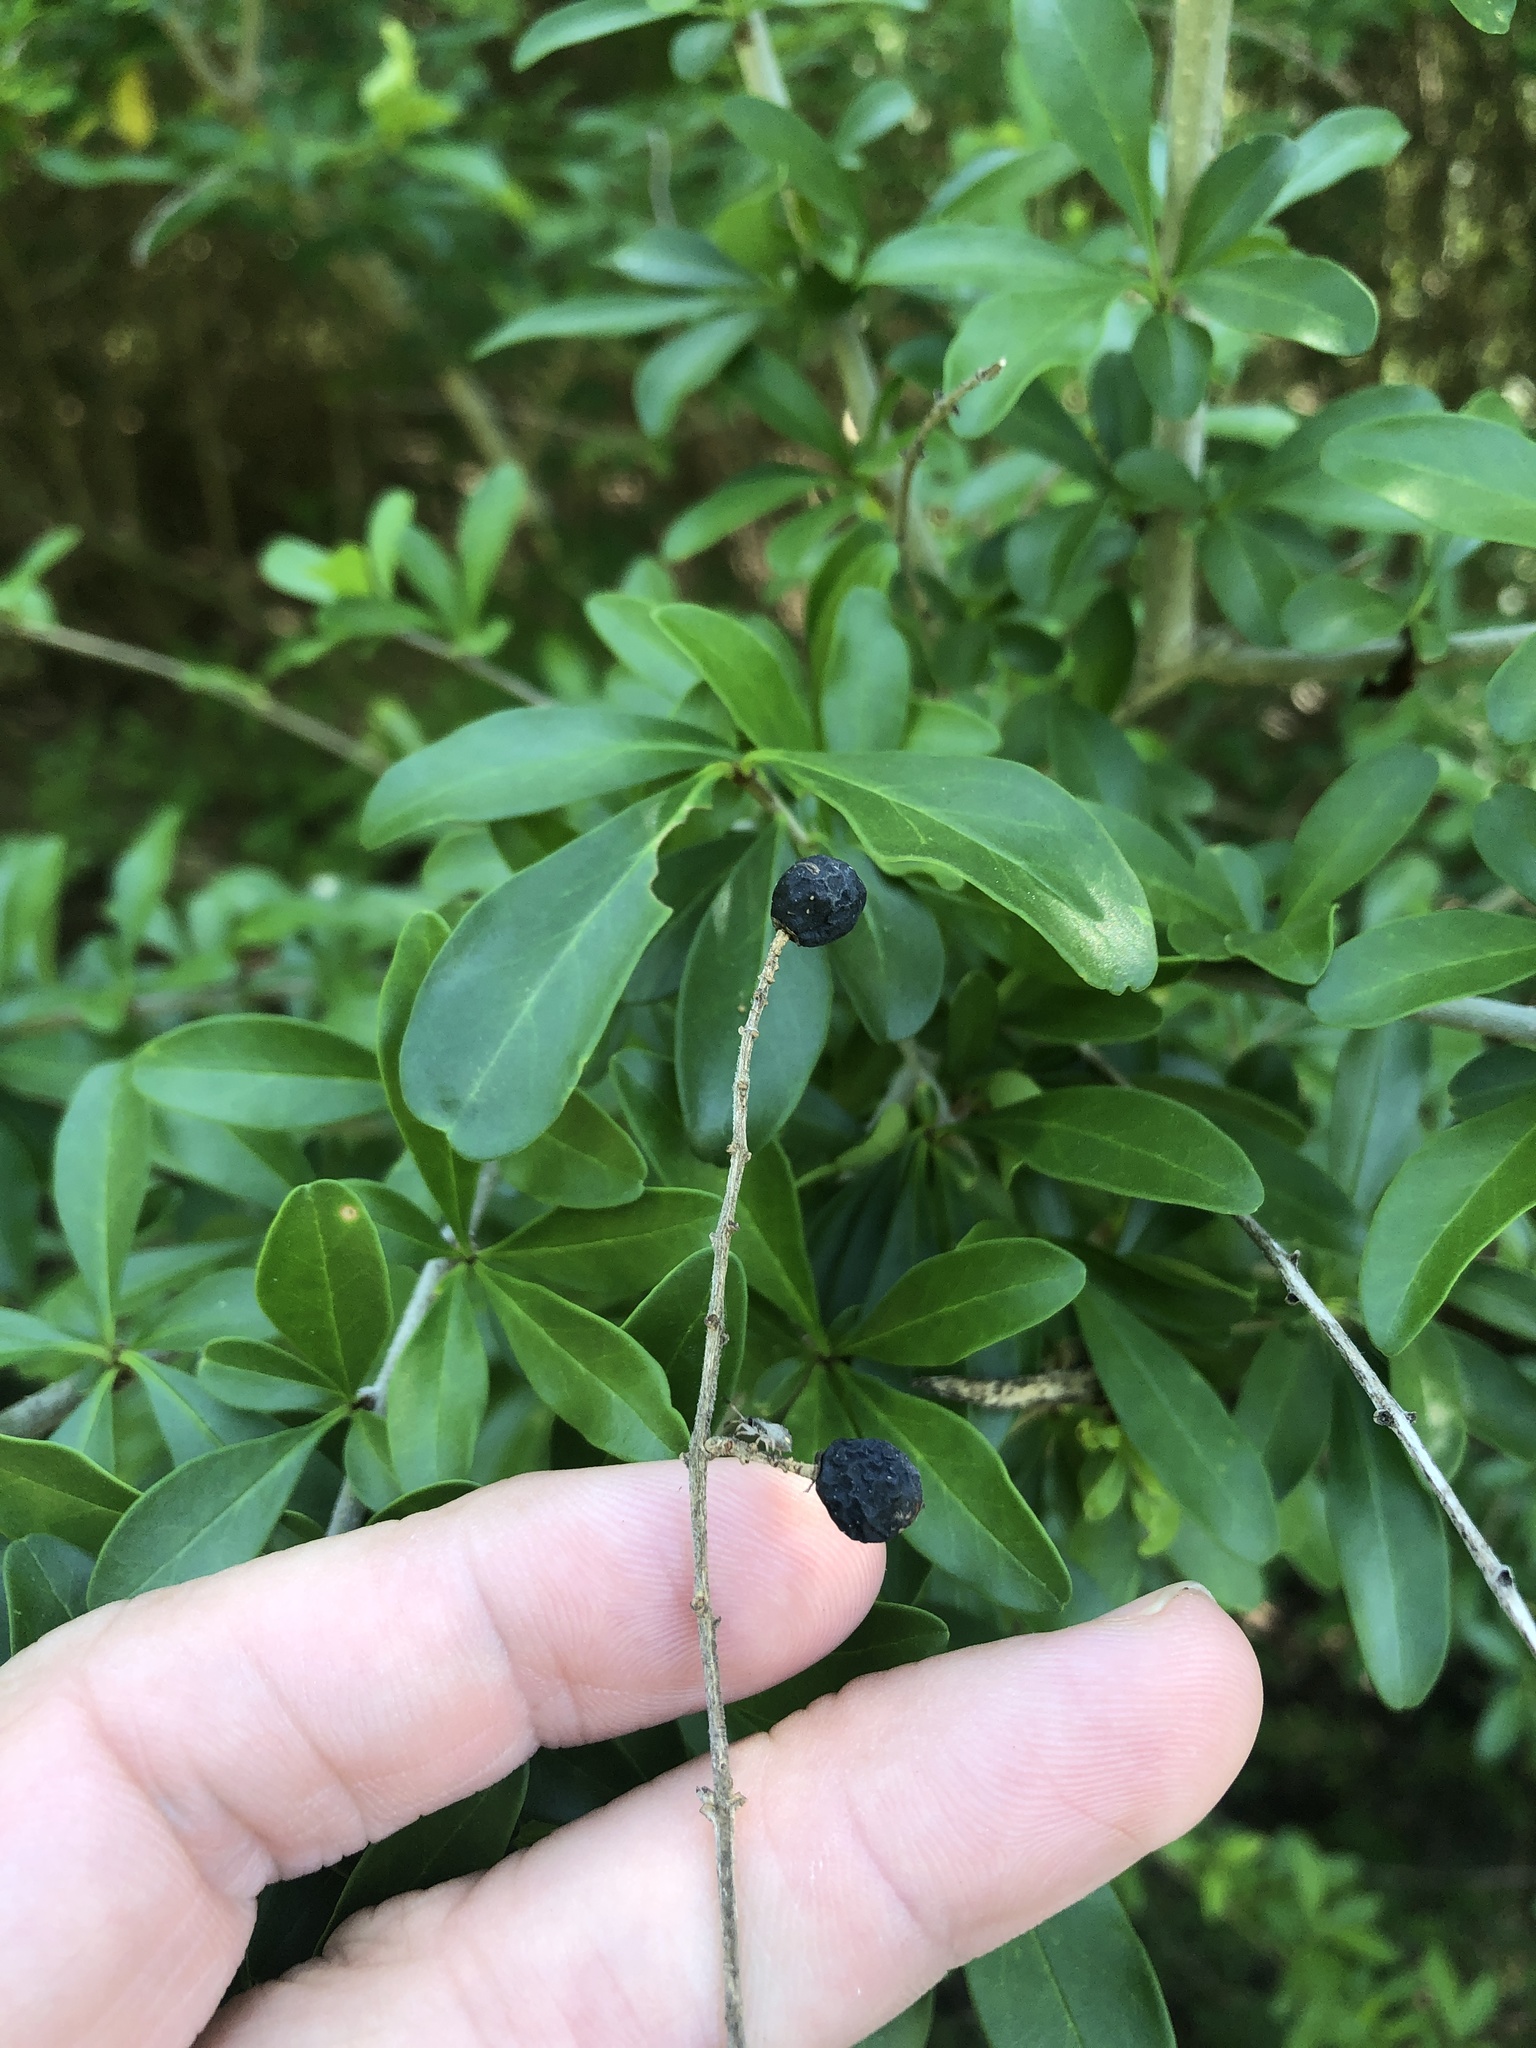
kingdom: Plantae
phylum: Tracheophyta
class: Magnoliopsida
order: Lamiales
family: Oleaceae
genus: Ligustrum
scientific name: Ligustrum quihoui
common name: Waxyleaf privet
